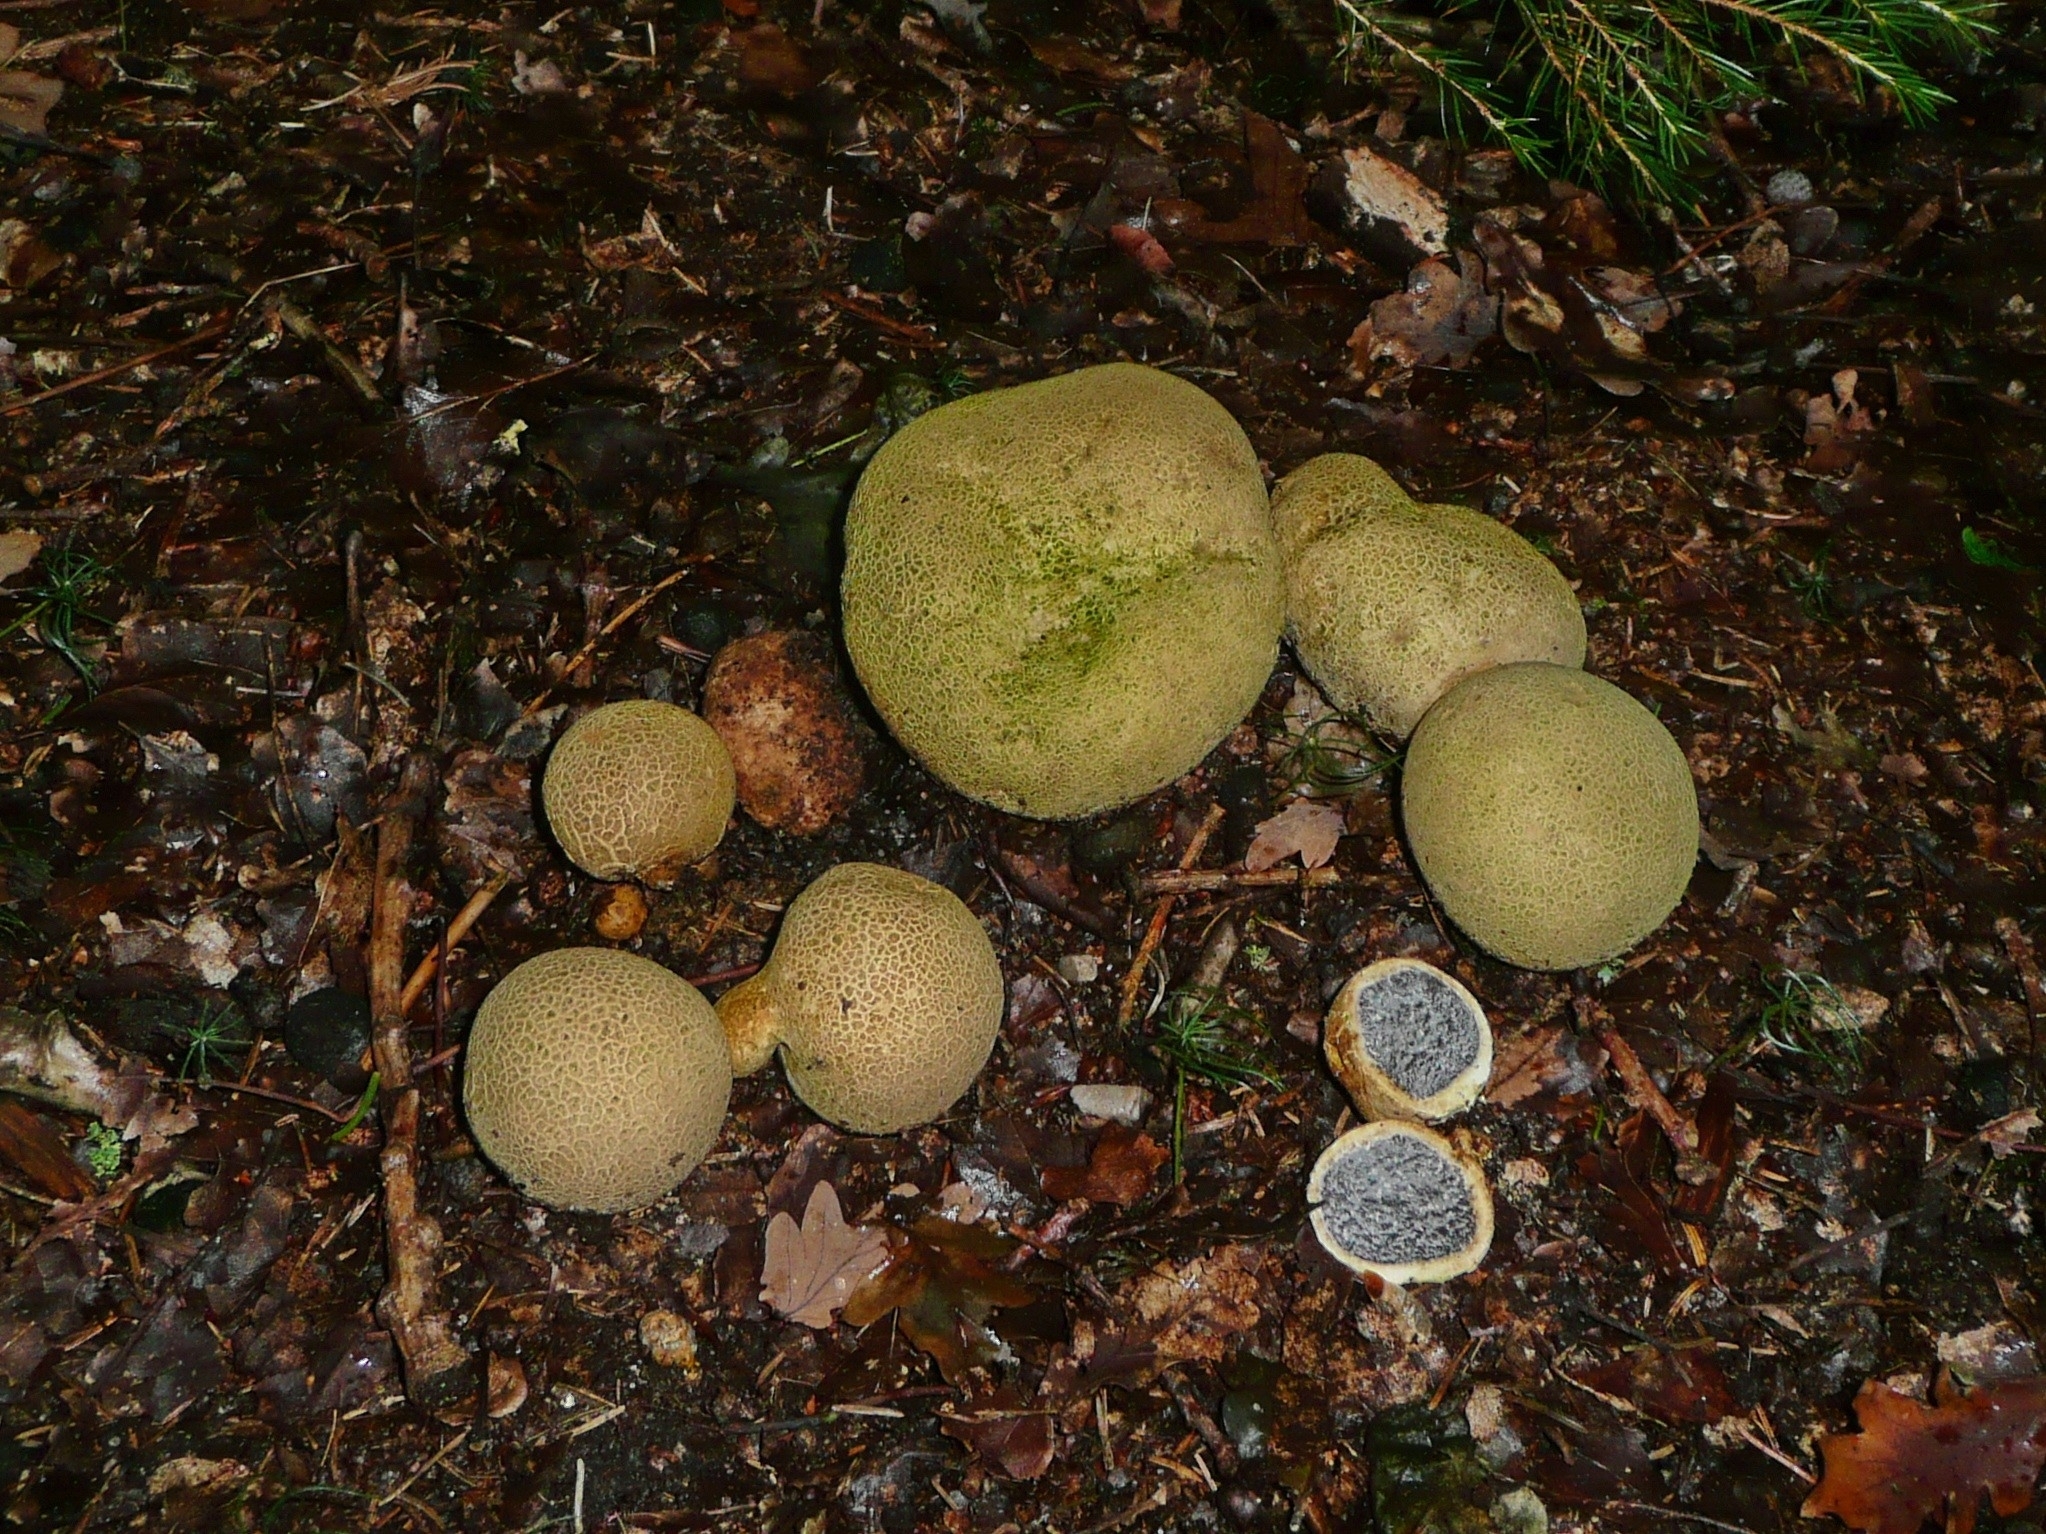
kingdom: Fungi
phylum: Basidiomycota
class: Agaricomycetes
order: Boletales
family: Sclerodermataceae
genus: Scleroderma
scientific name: Scleroderma citrinum
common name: Common earthball
